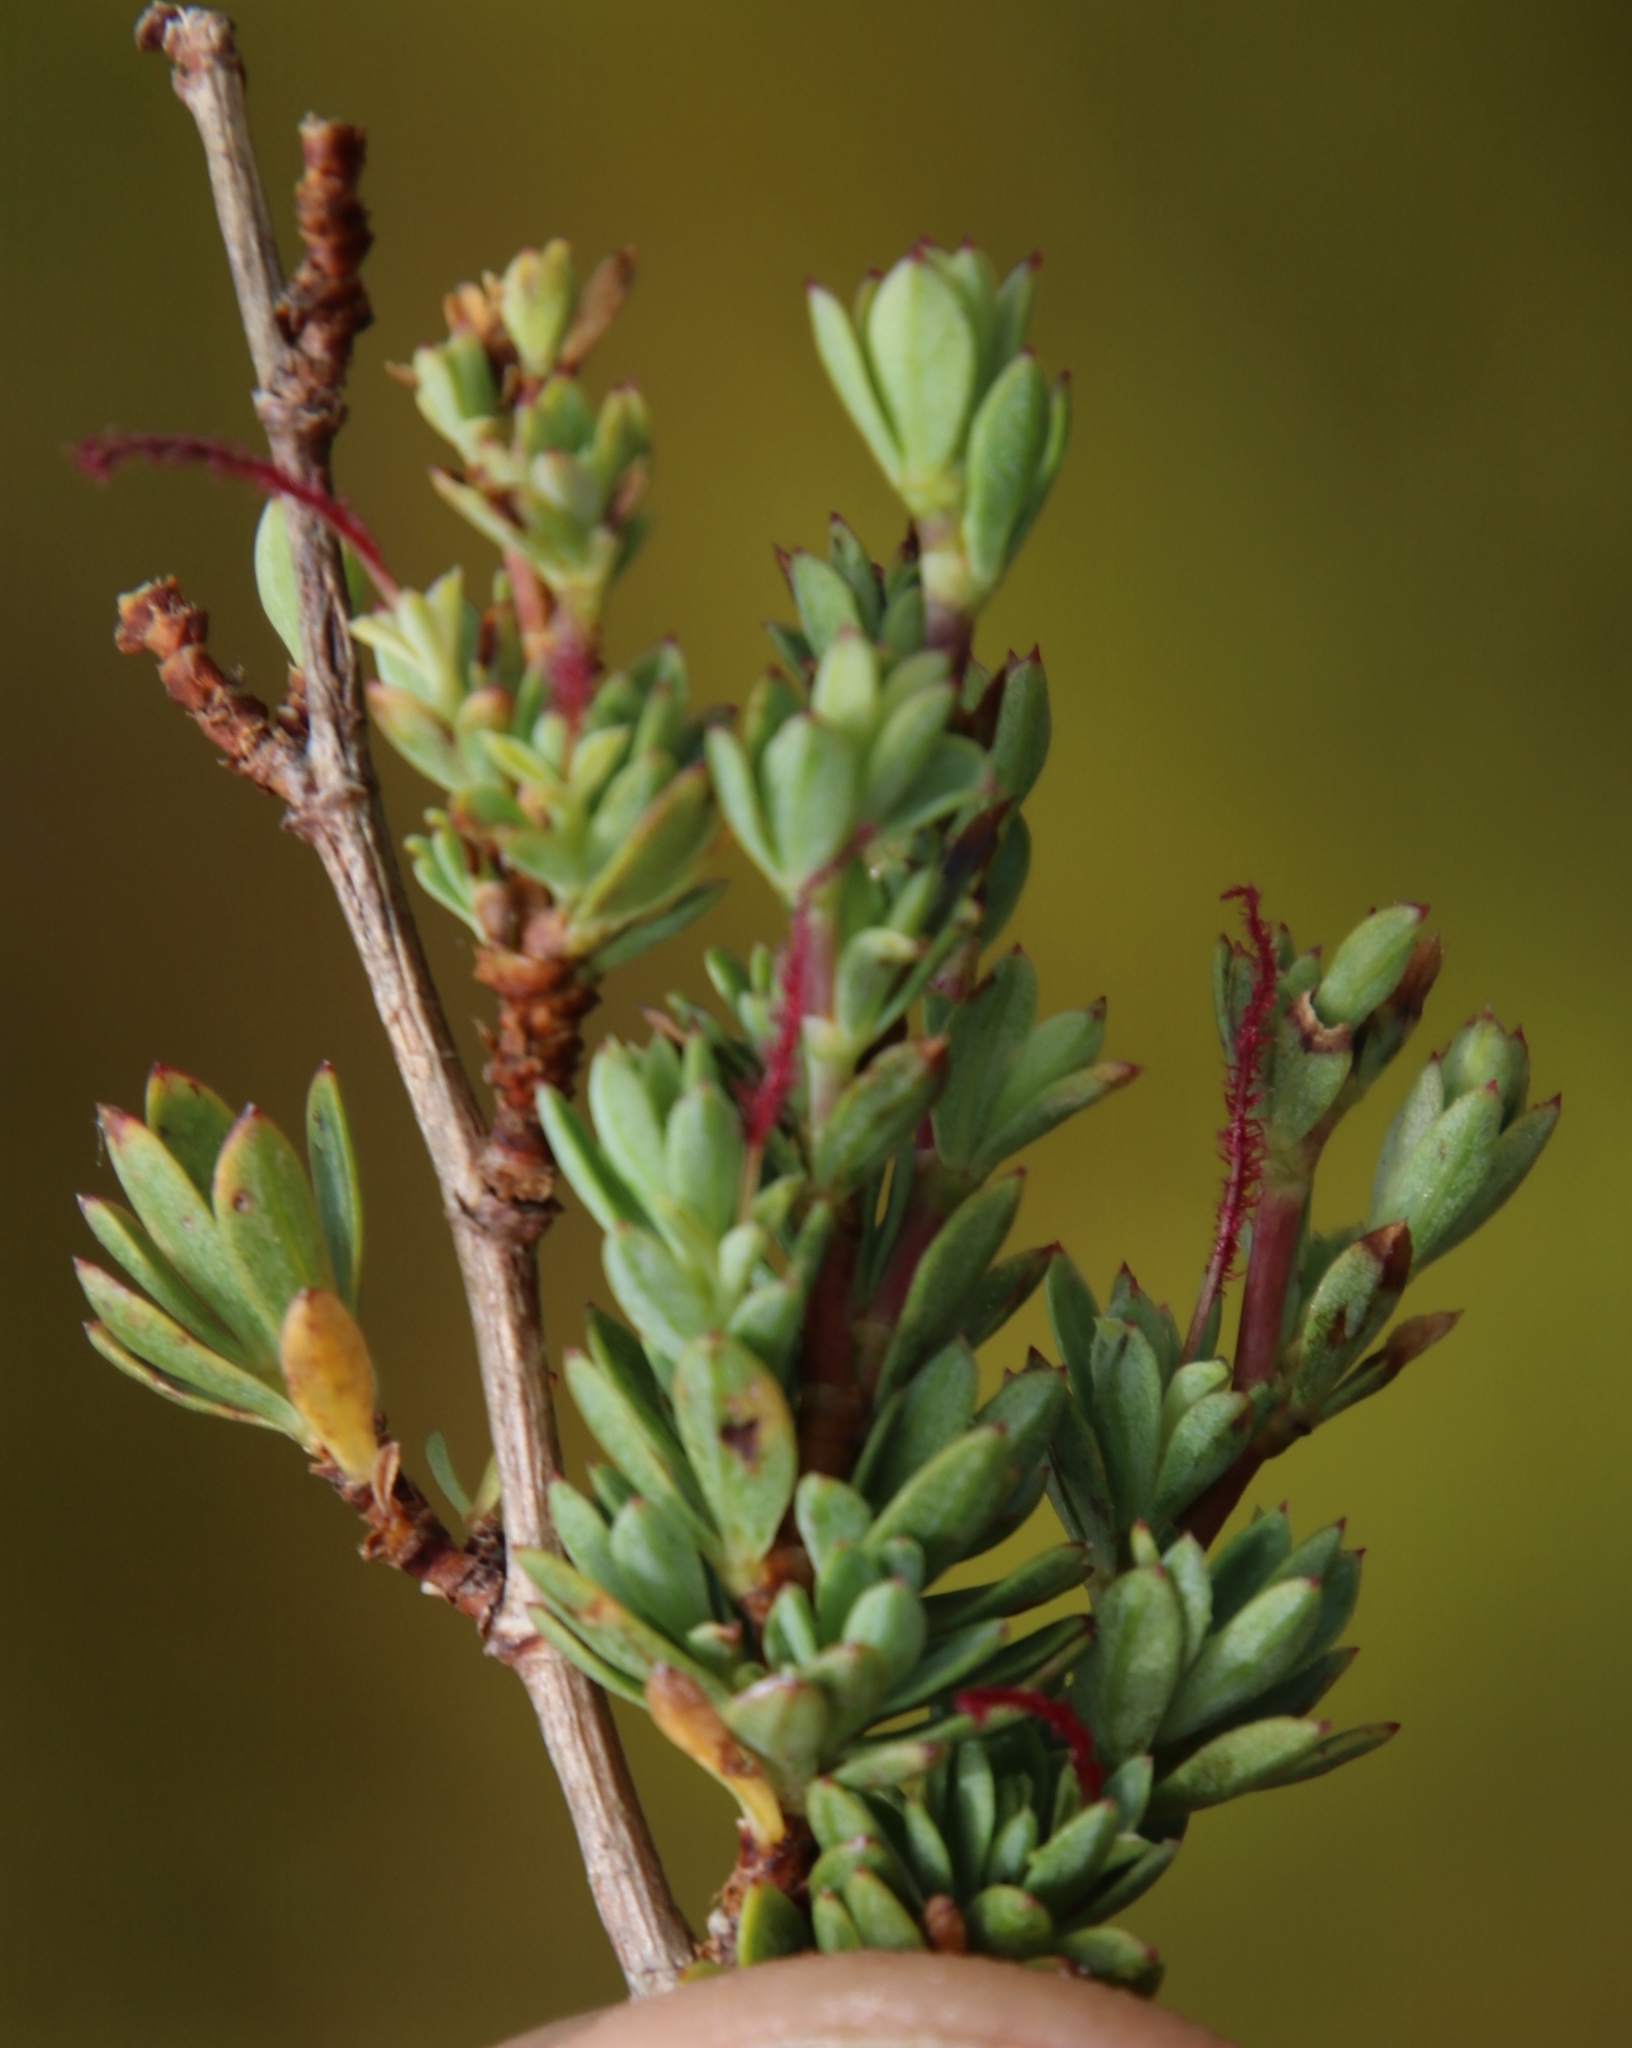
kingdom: Plantae
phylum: Tracheophyta
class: Magnoliopsida
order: Rosales
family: Rosaceae
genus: Cliffortia
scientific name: Cliffortia carinata
